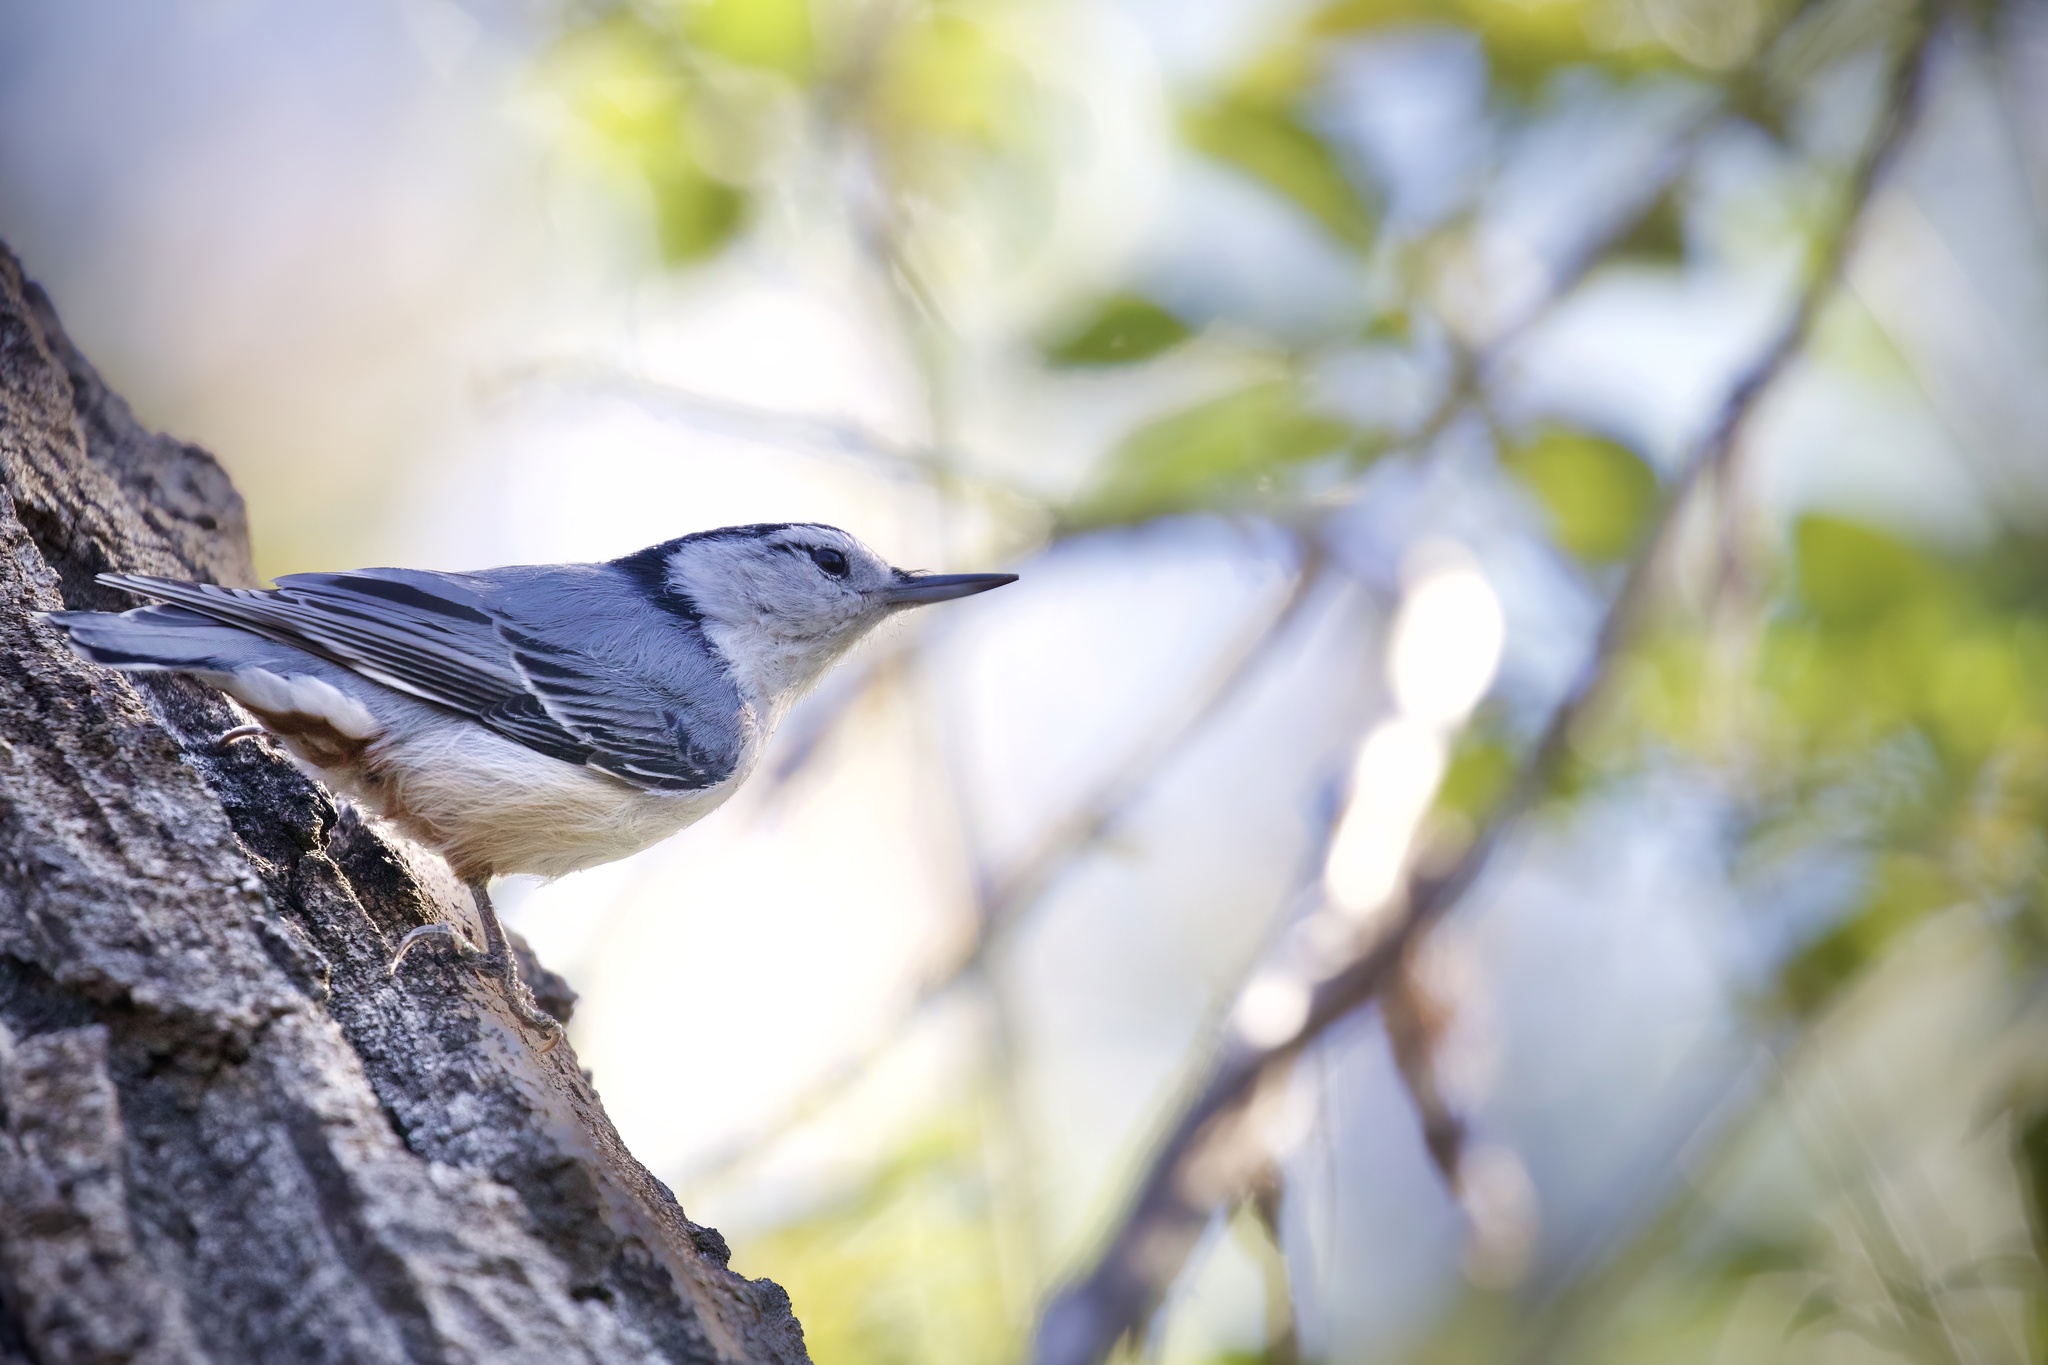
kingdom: Animalia
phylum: Chordata
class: Aves
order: Passeriformes
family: Sittidae
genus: Sitta
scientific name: Sitta carolinensis
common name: White-breasted nuthatch
